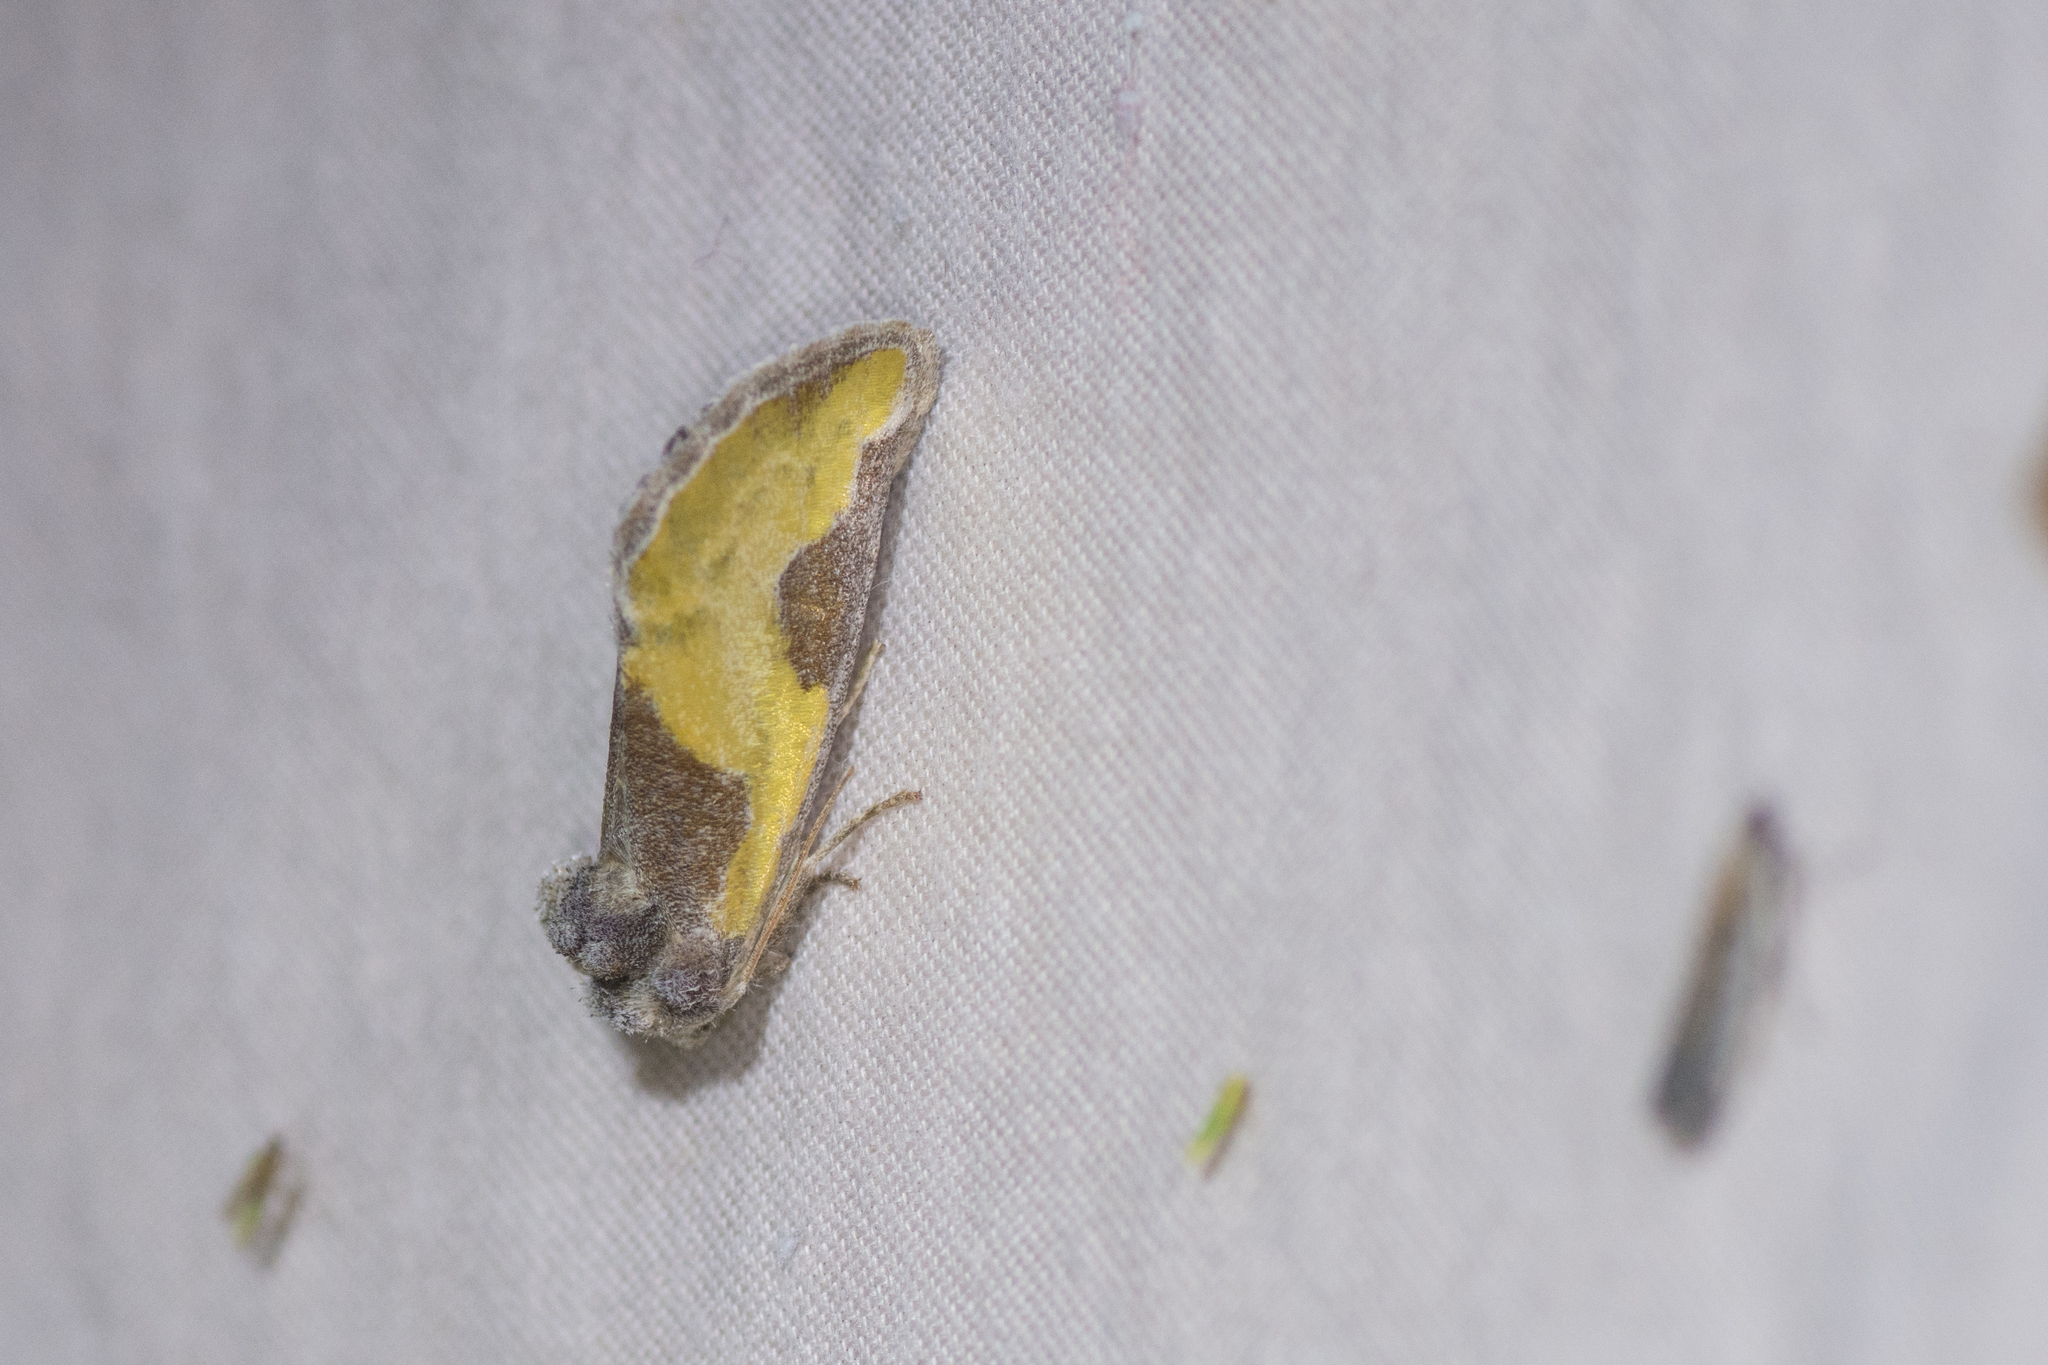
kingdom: Animalia
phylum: Arthropoda
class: Insecta
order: Lepidoptera
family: Noctuidae
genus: Chalcopasta
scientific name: Chalcopasta fulgens
